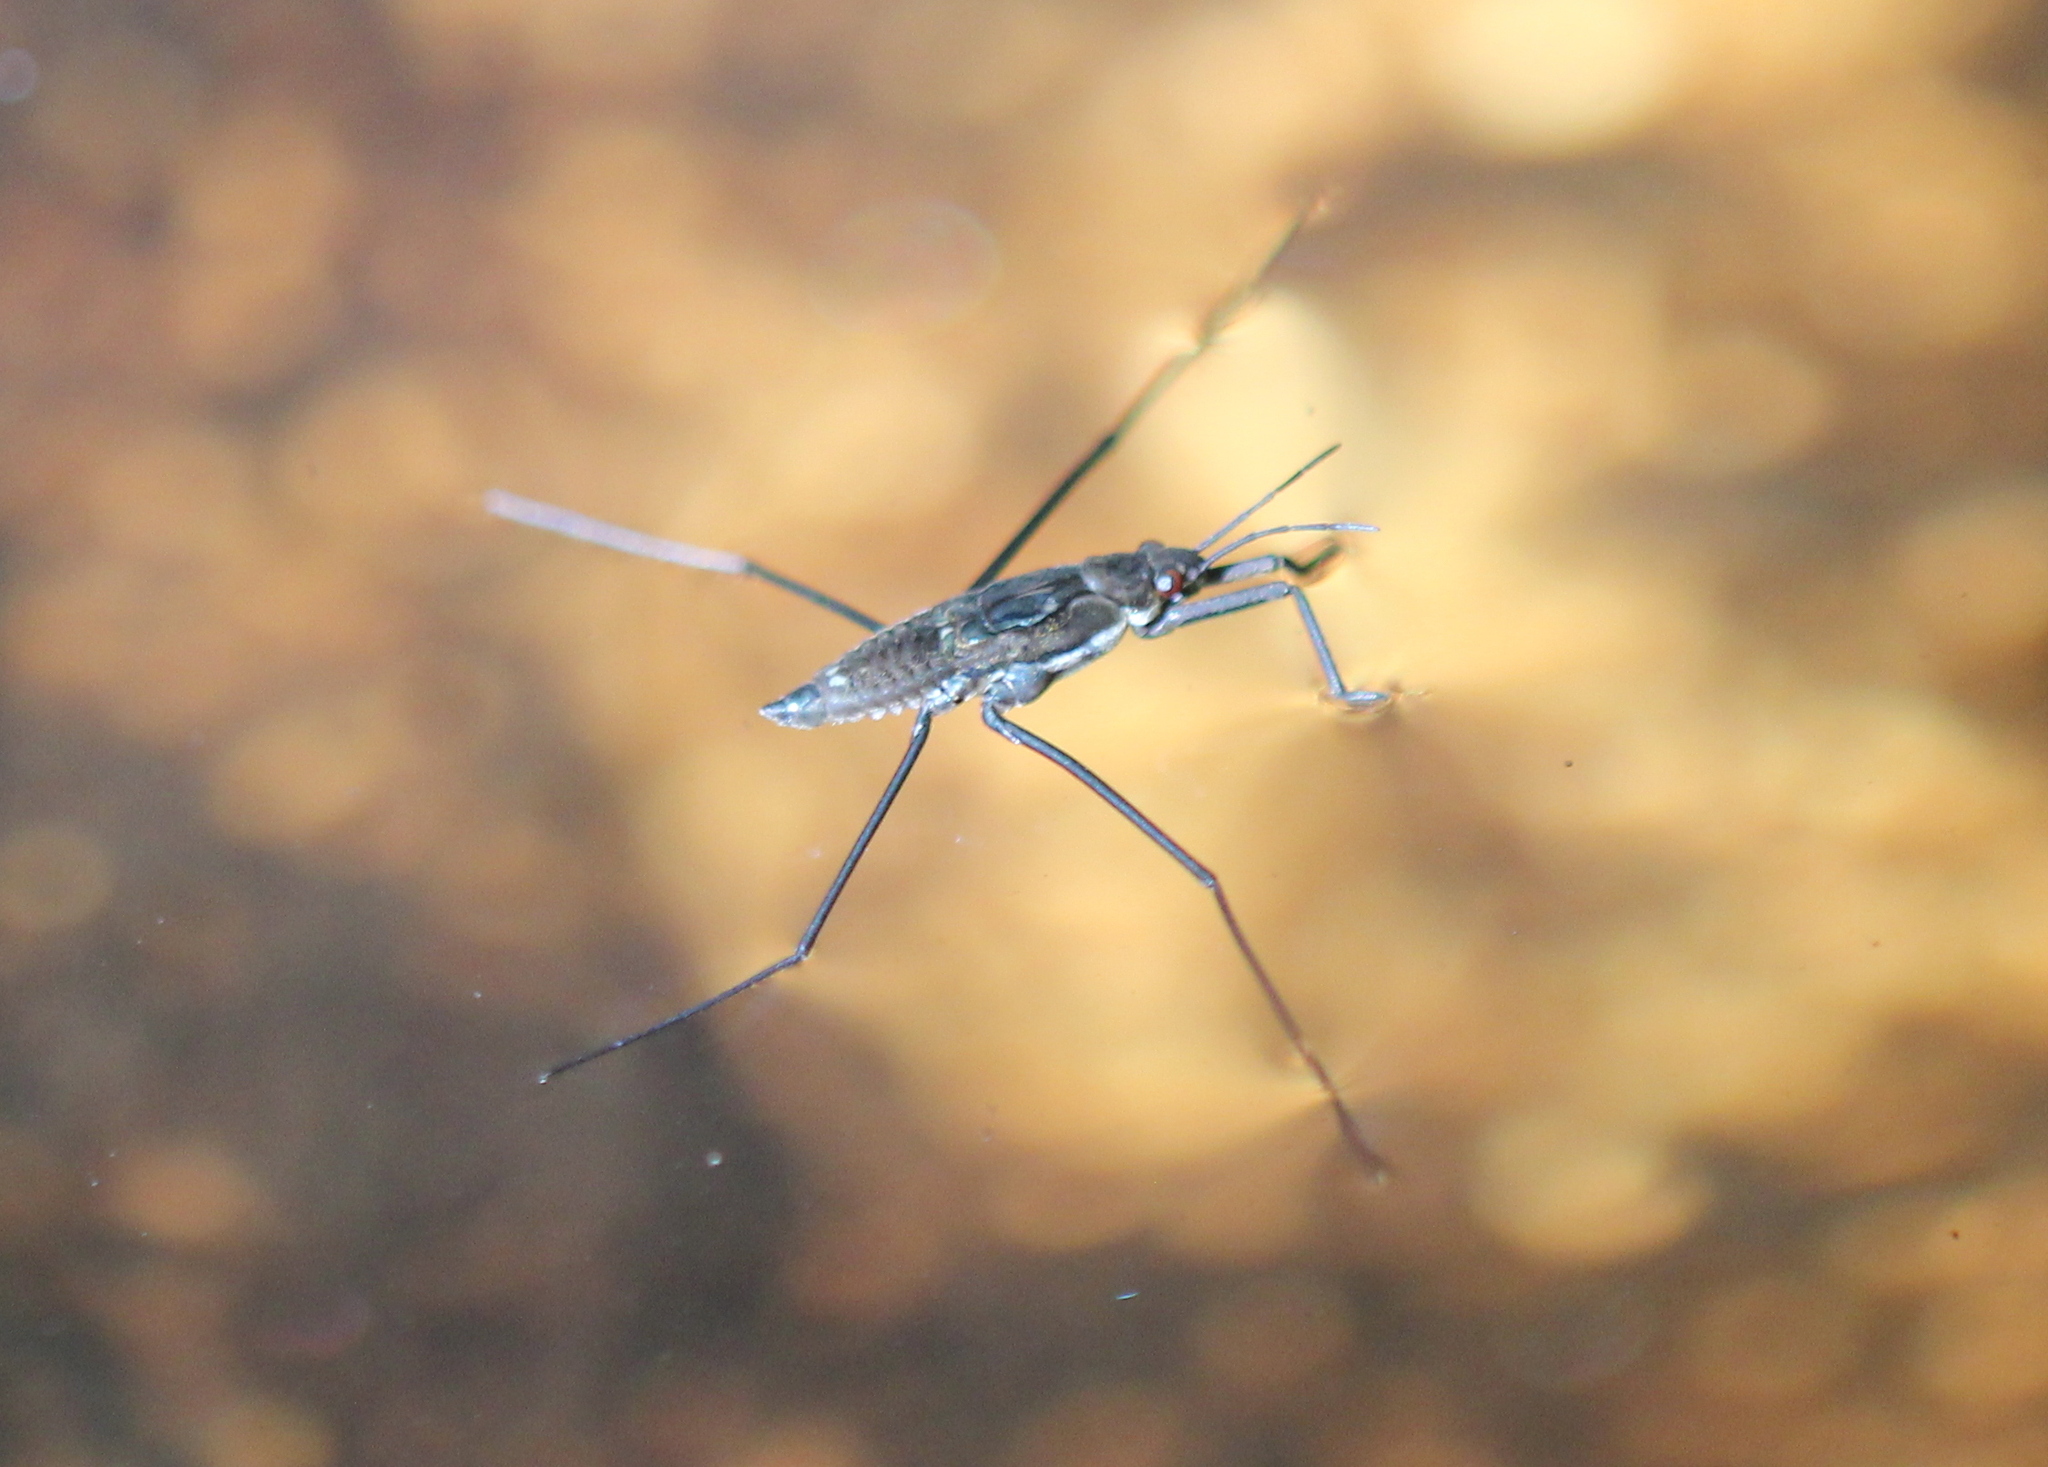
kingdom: Animalia
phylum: Arthropoda
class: Insecta
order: Hemiptera
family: Gerridae
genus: Aquarius
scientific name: Aquarius remigis
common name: Common water strider
